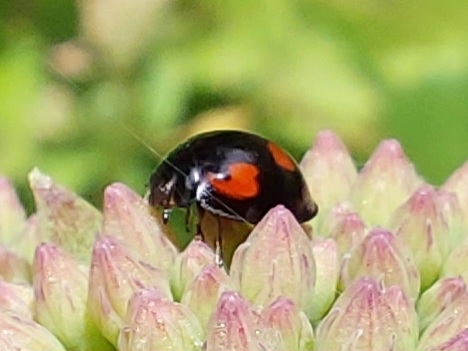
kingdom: Animalia
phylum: Arthropoda
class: Insecta
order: Coleoptera
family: Coccinellidae
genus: Brumus
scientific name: Brumus quadripustulatus
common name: Ladybird beetle
